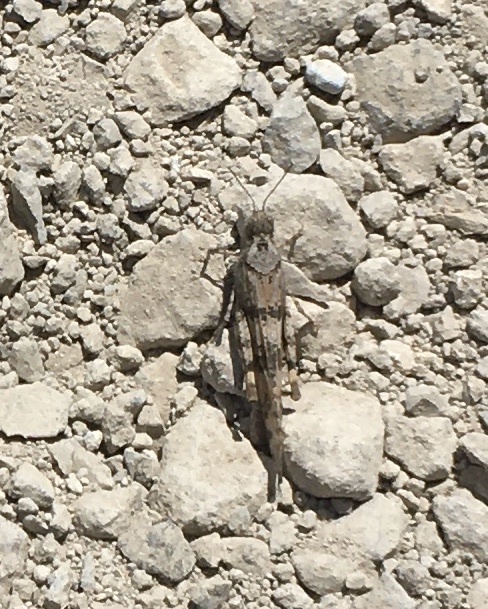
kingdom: Animalia
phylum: Arthropoda
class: Insecta
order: Orthoptera
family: Acrididae
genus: Trimerotropis
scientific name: Trimerotropis pallidipennis
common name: Pallid-winged grasshopper
